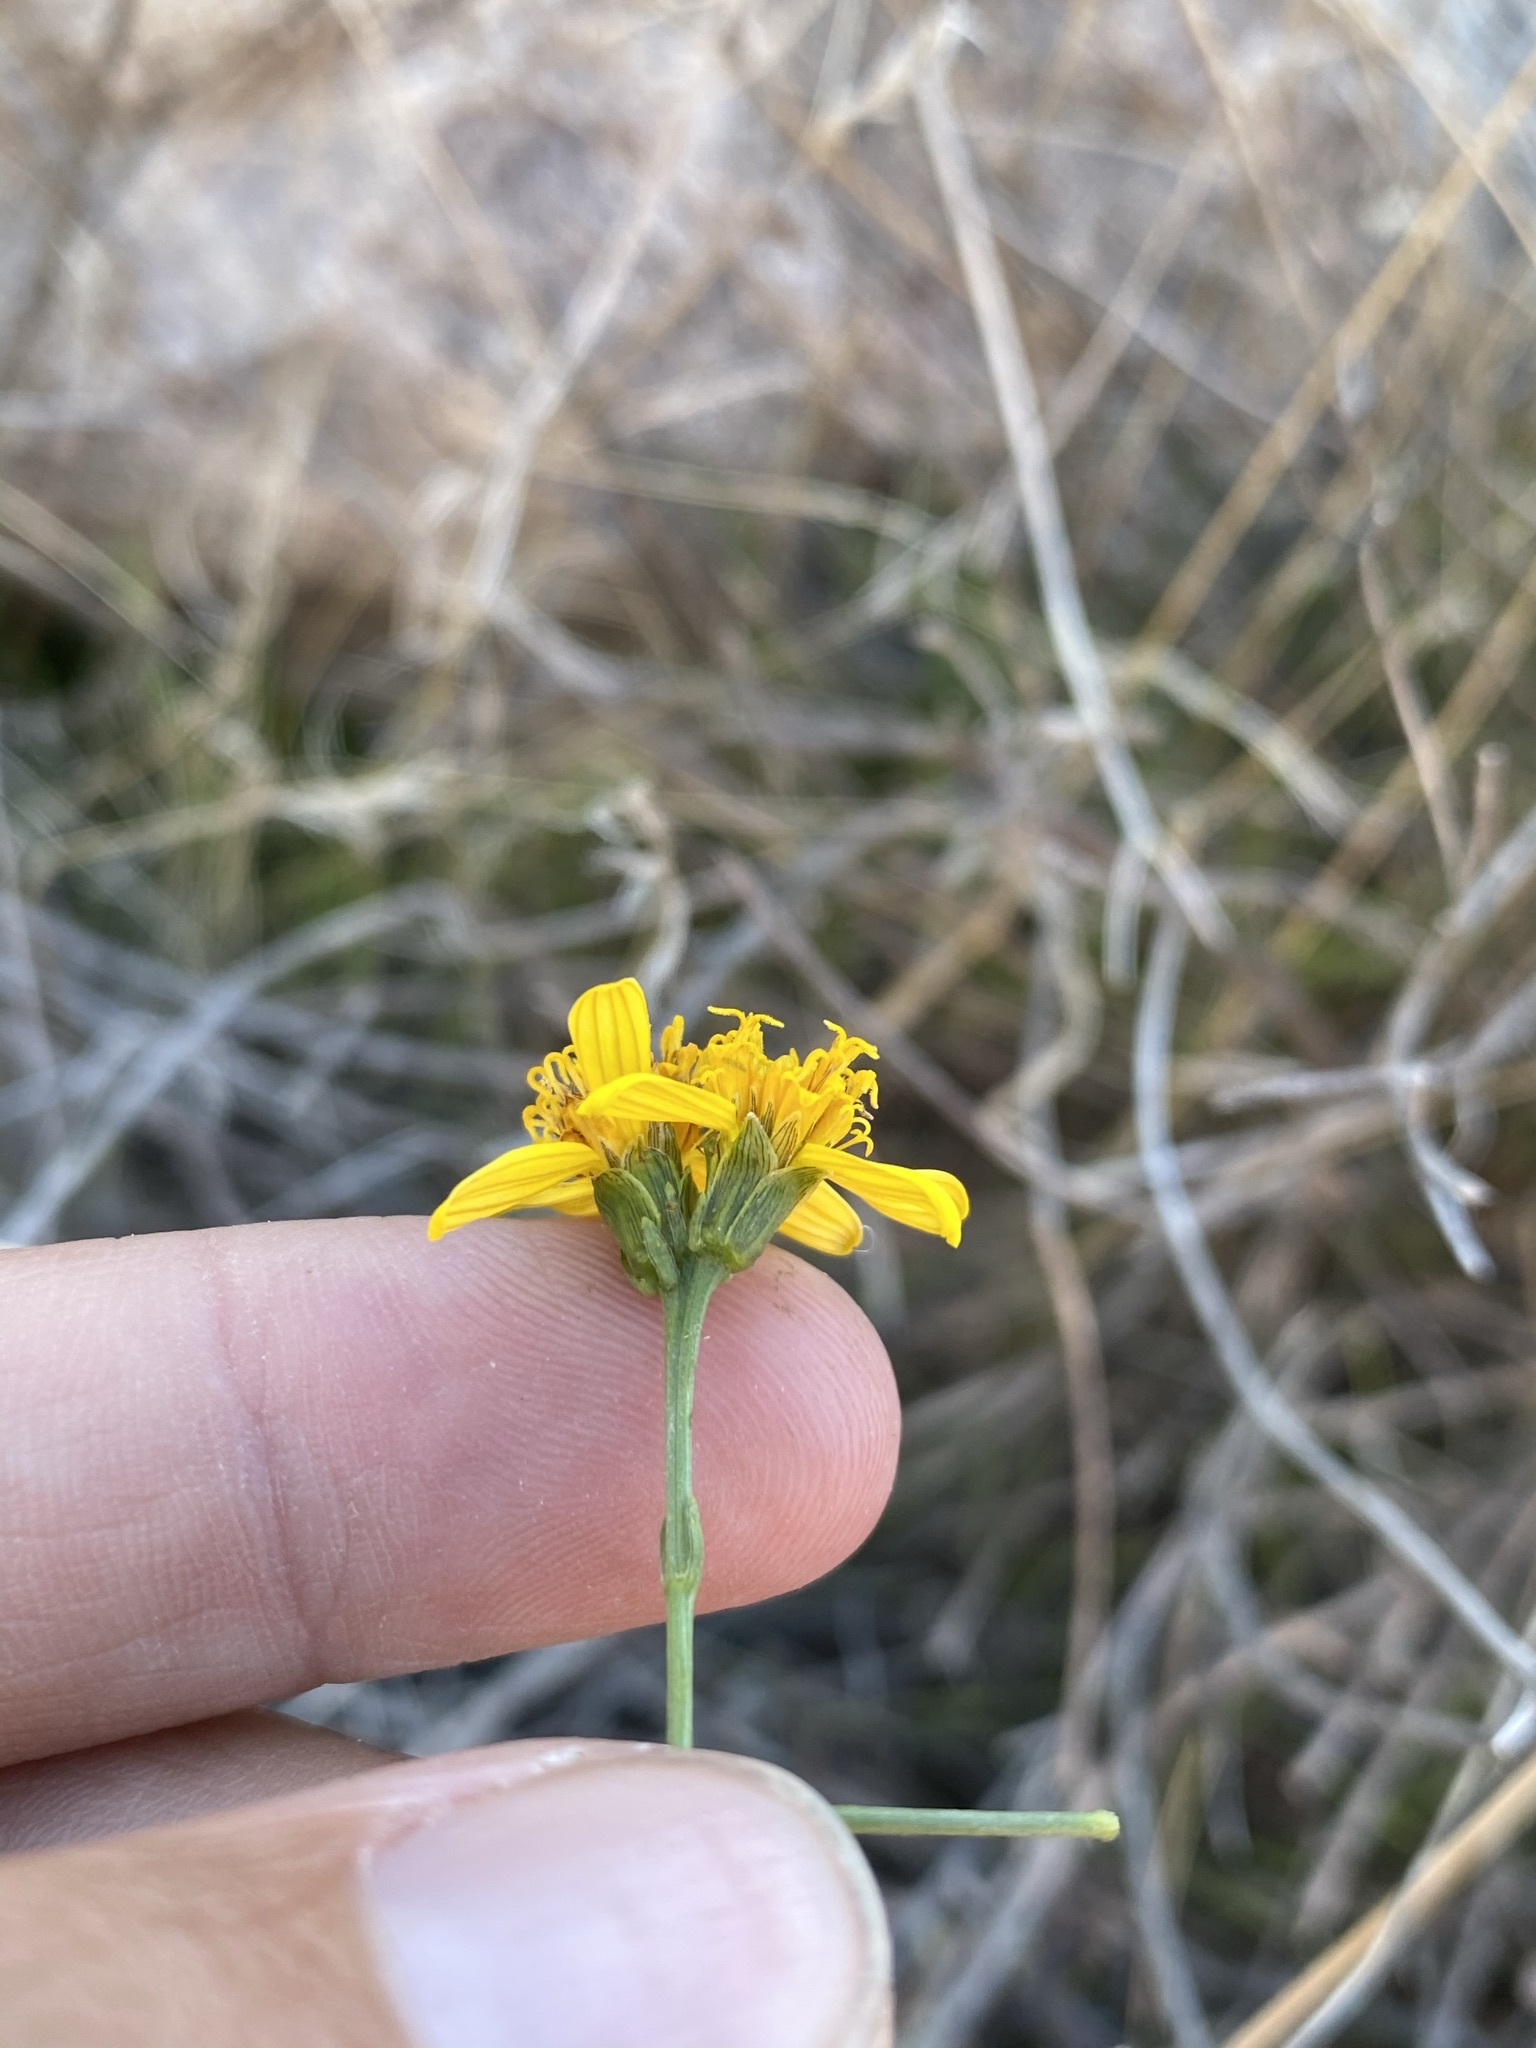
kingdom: Plantae
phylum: Tracheophyta
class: Magnoliopsida
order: Asterales
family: Asteraceae
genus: Coreocarpus
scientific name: Coreocarpus arizonicus
